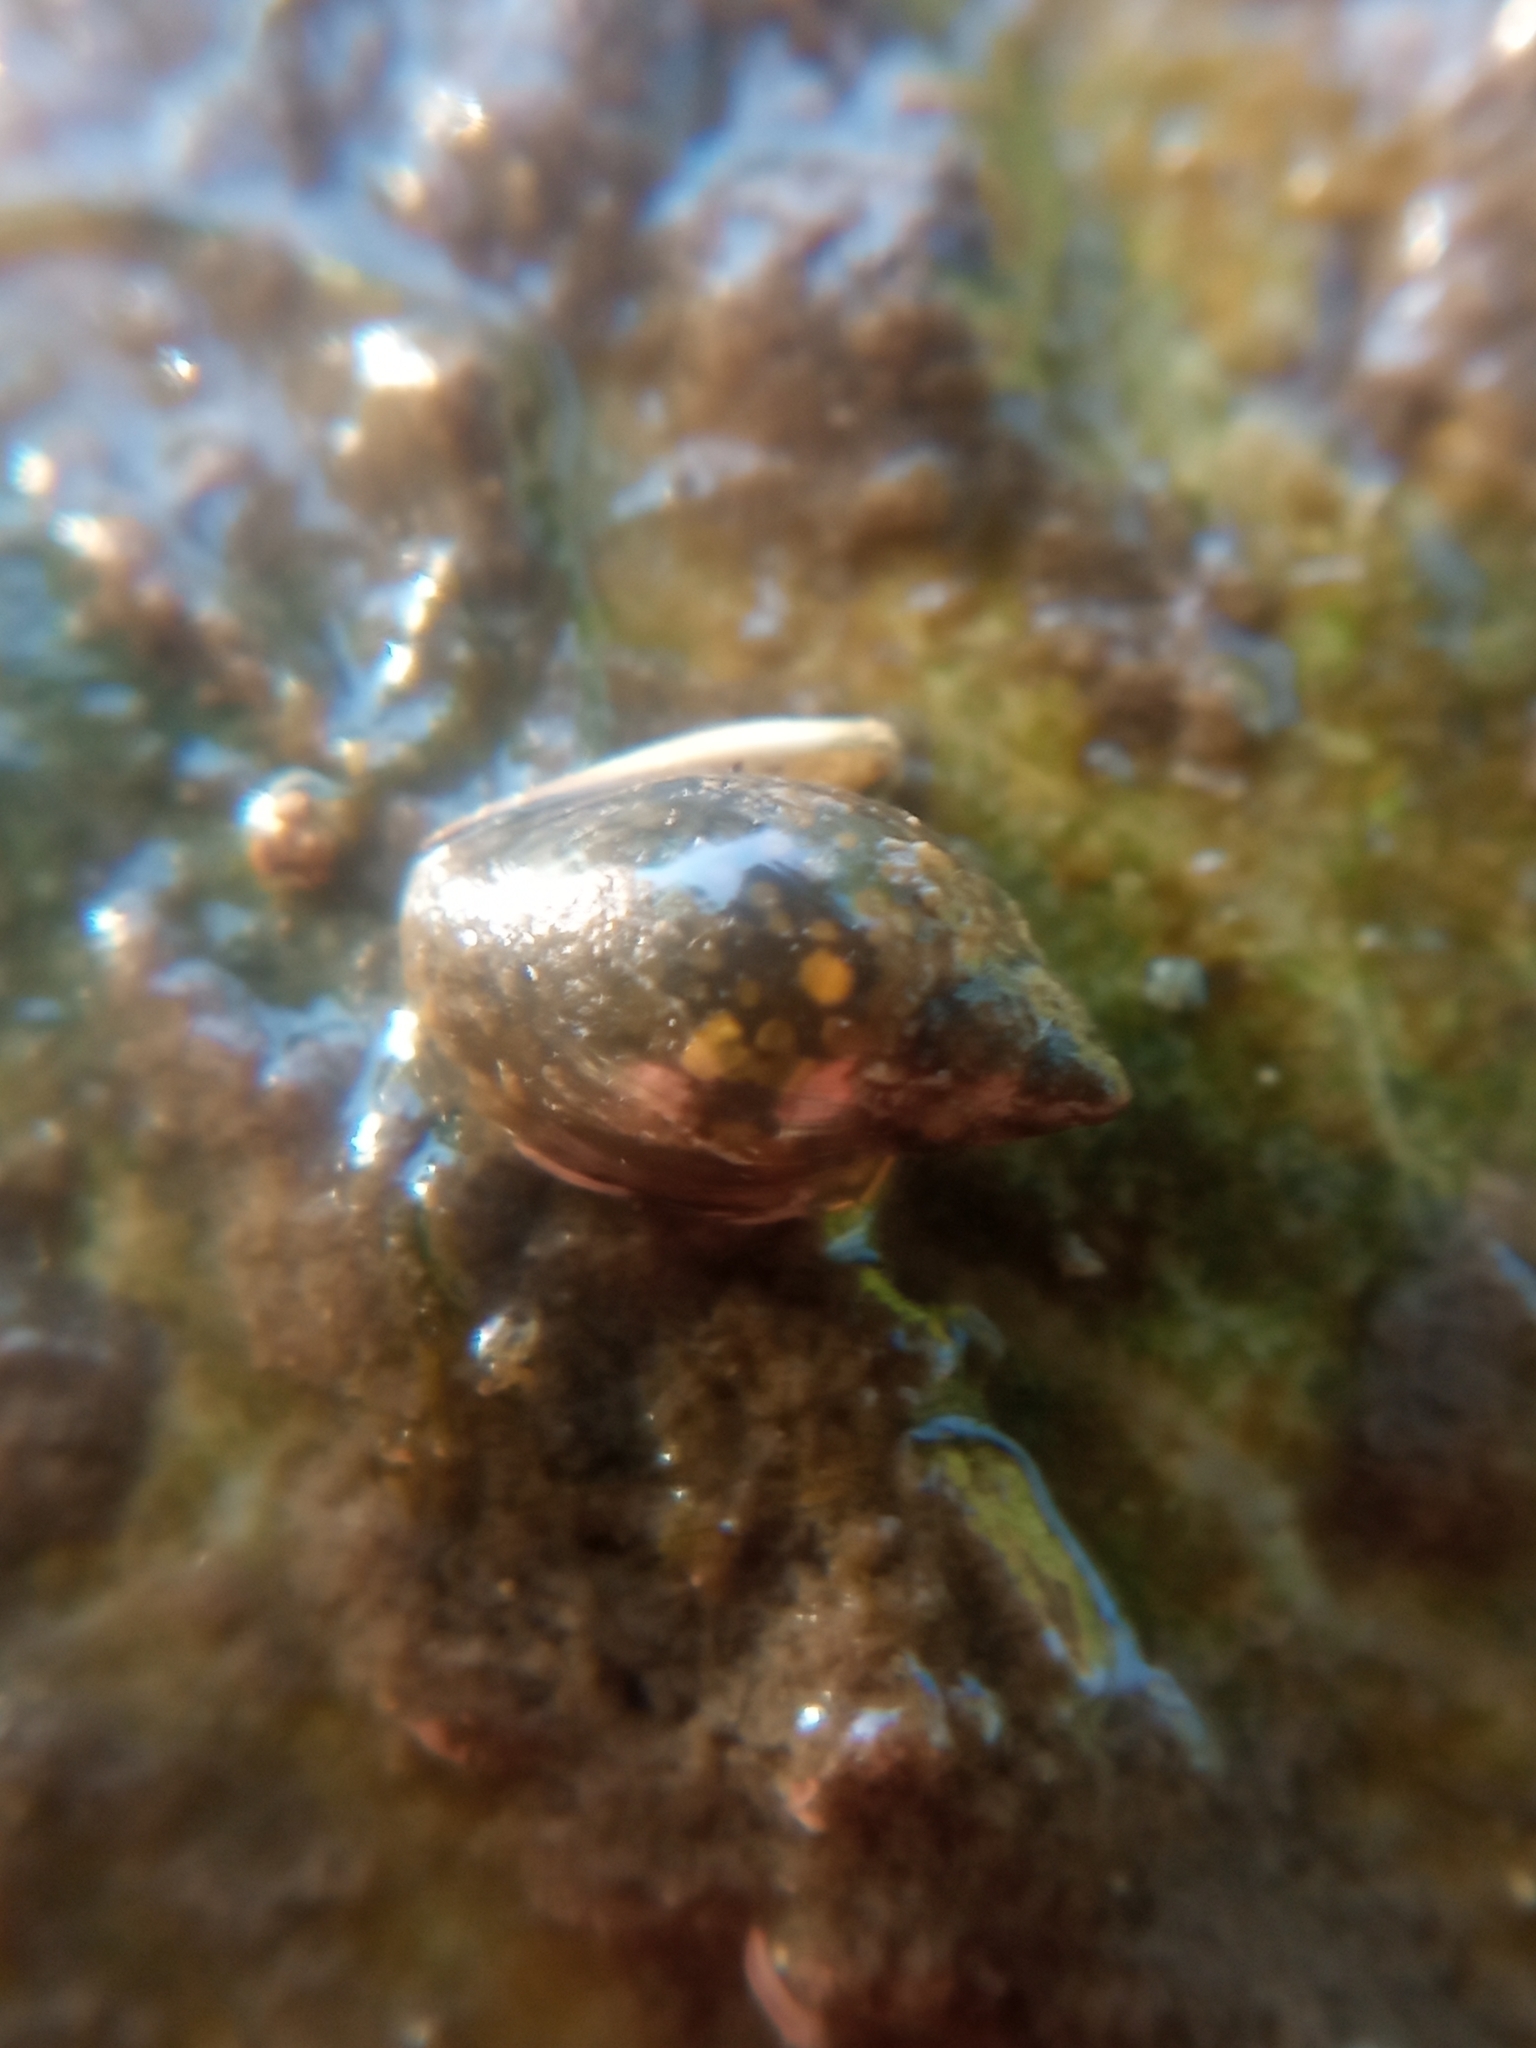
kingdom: Animalia
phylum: Mollusca
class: Gastropoda
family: Physidae
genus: Physella
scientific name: Physella acuta
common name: European physa
